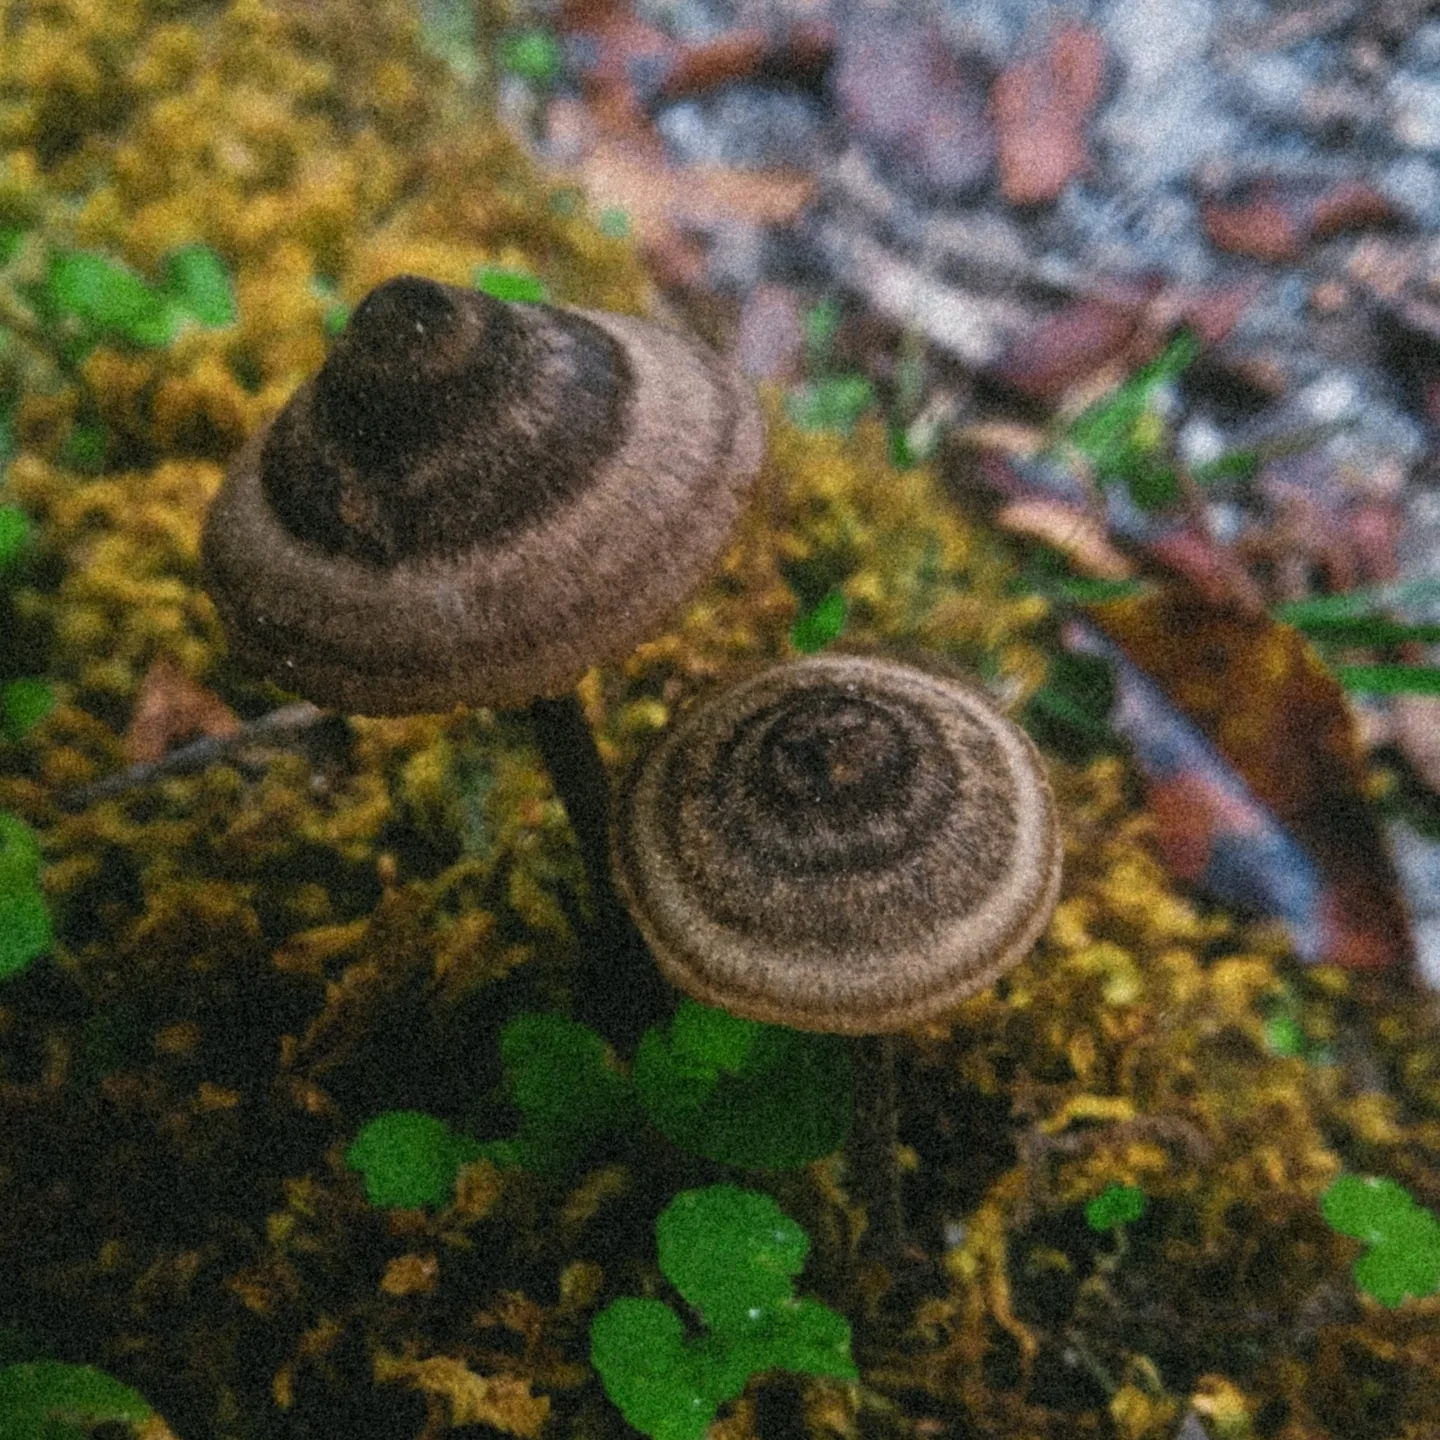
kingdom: Fungi
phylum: Basidiomycota
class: Agaricomycetes
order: Agaricales
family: Entolomataceae
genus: Entoloma
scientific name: Entoloma perzonatum
